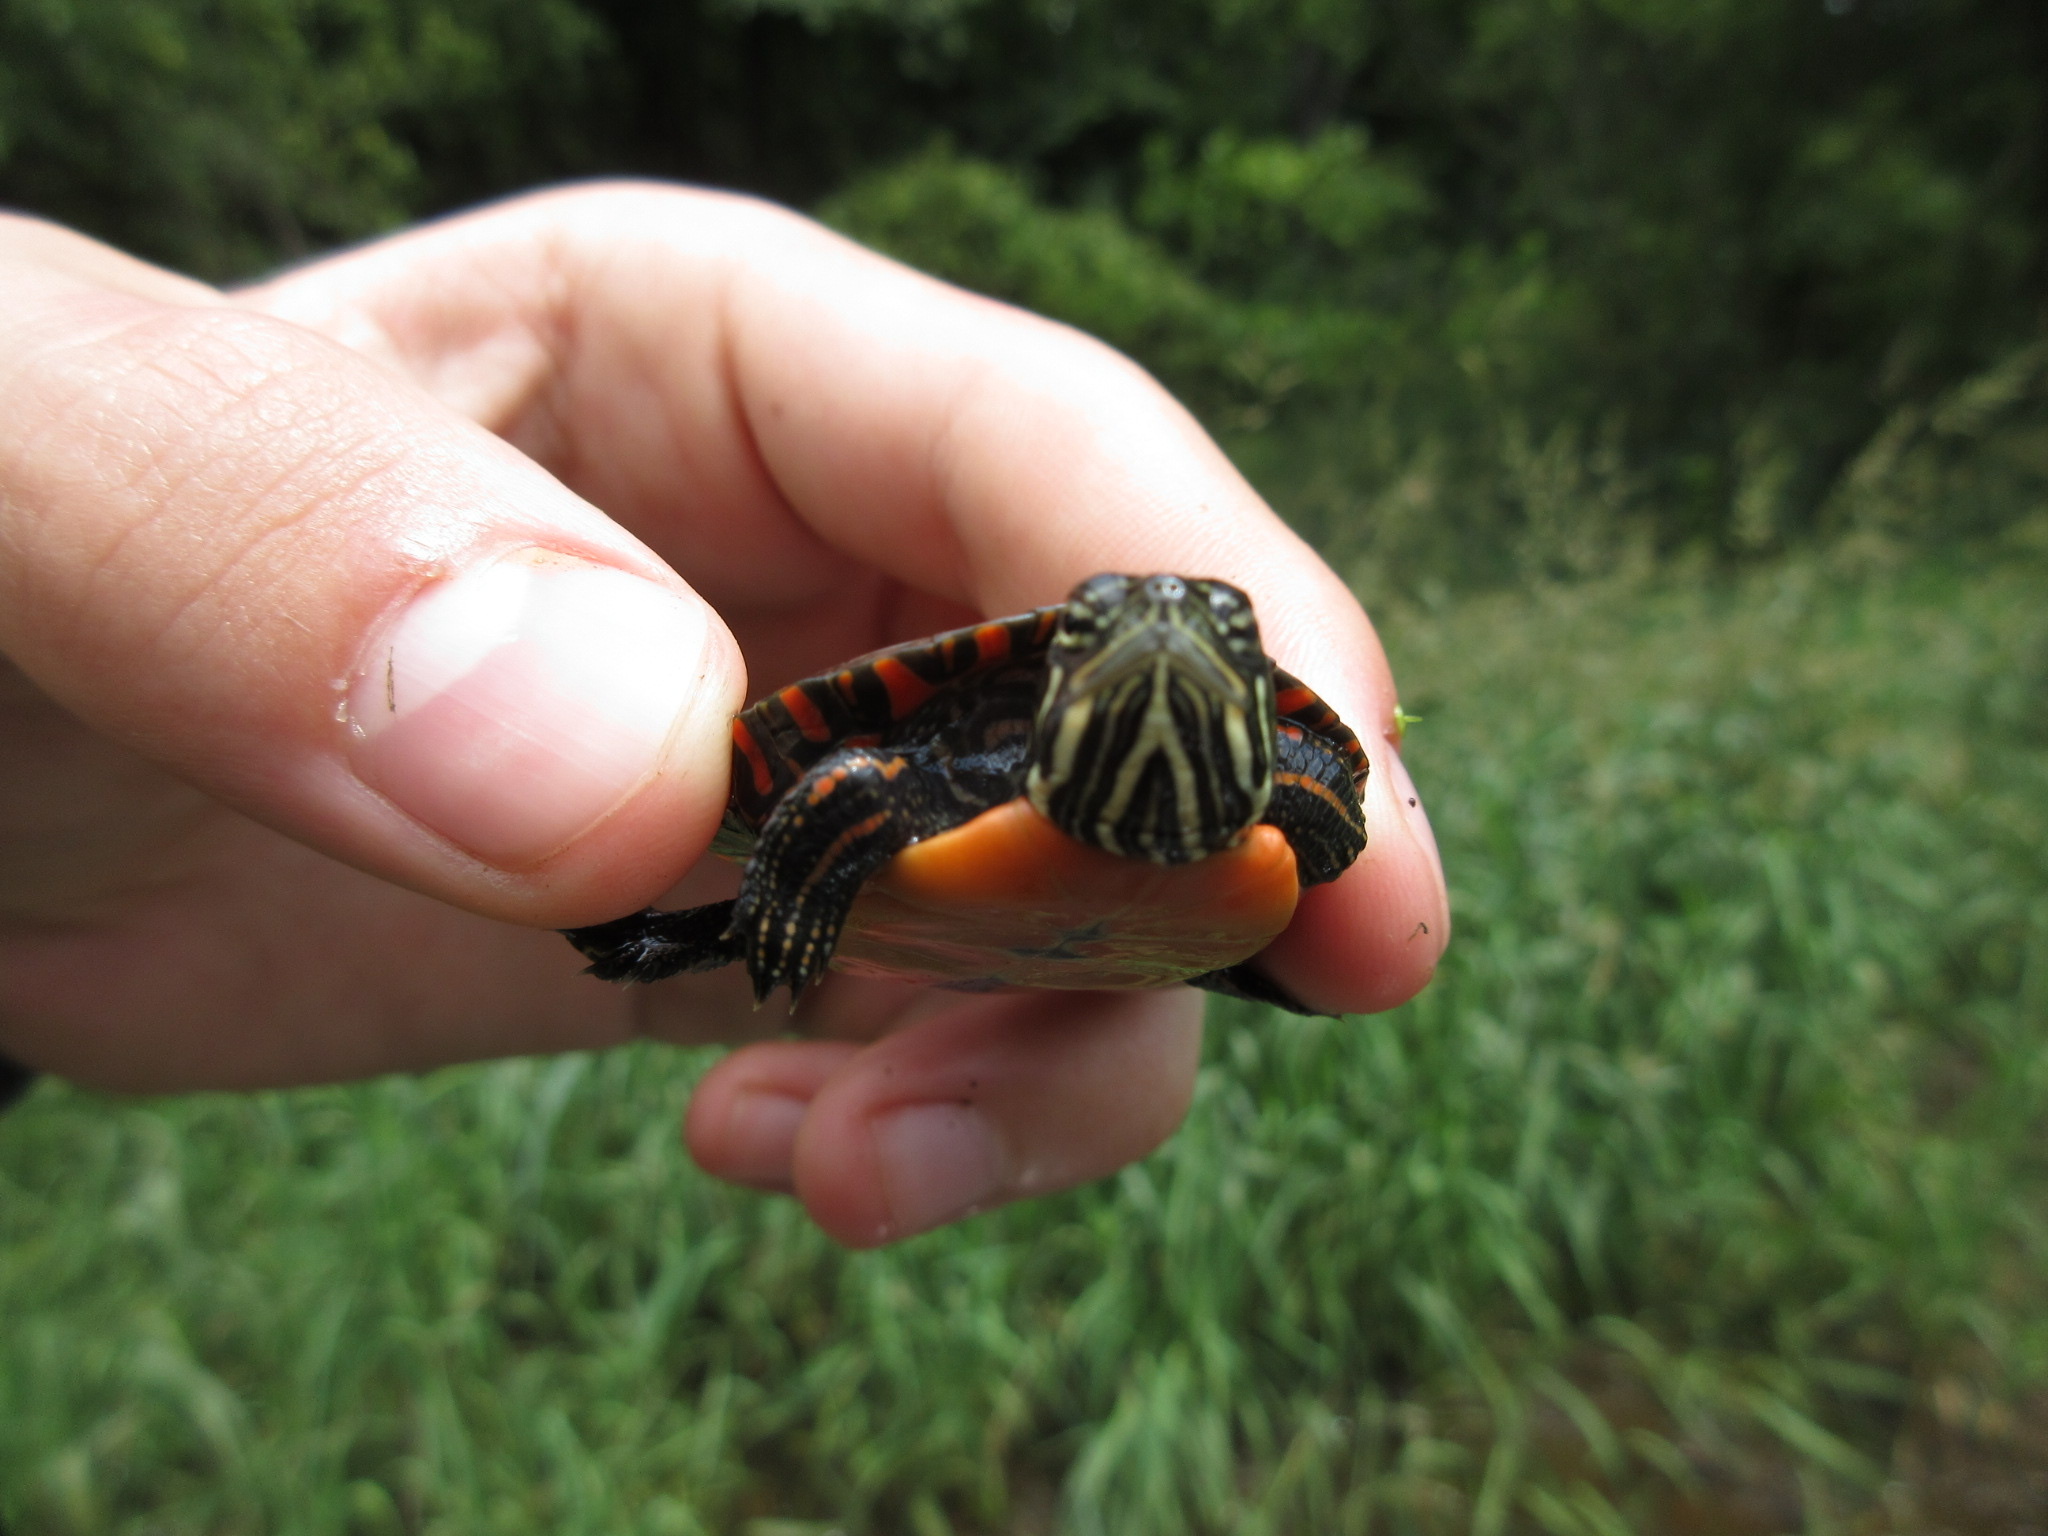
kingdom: Animalia
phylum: Chordata
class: Testudines
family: Emydidae
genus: Chrysemys
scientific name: Chrysemys picta
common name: Painted turtle
